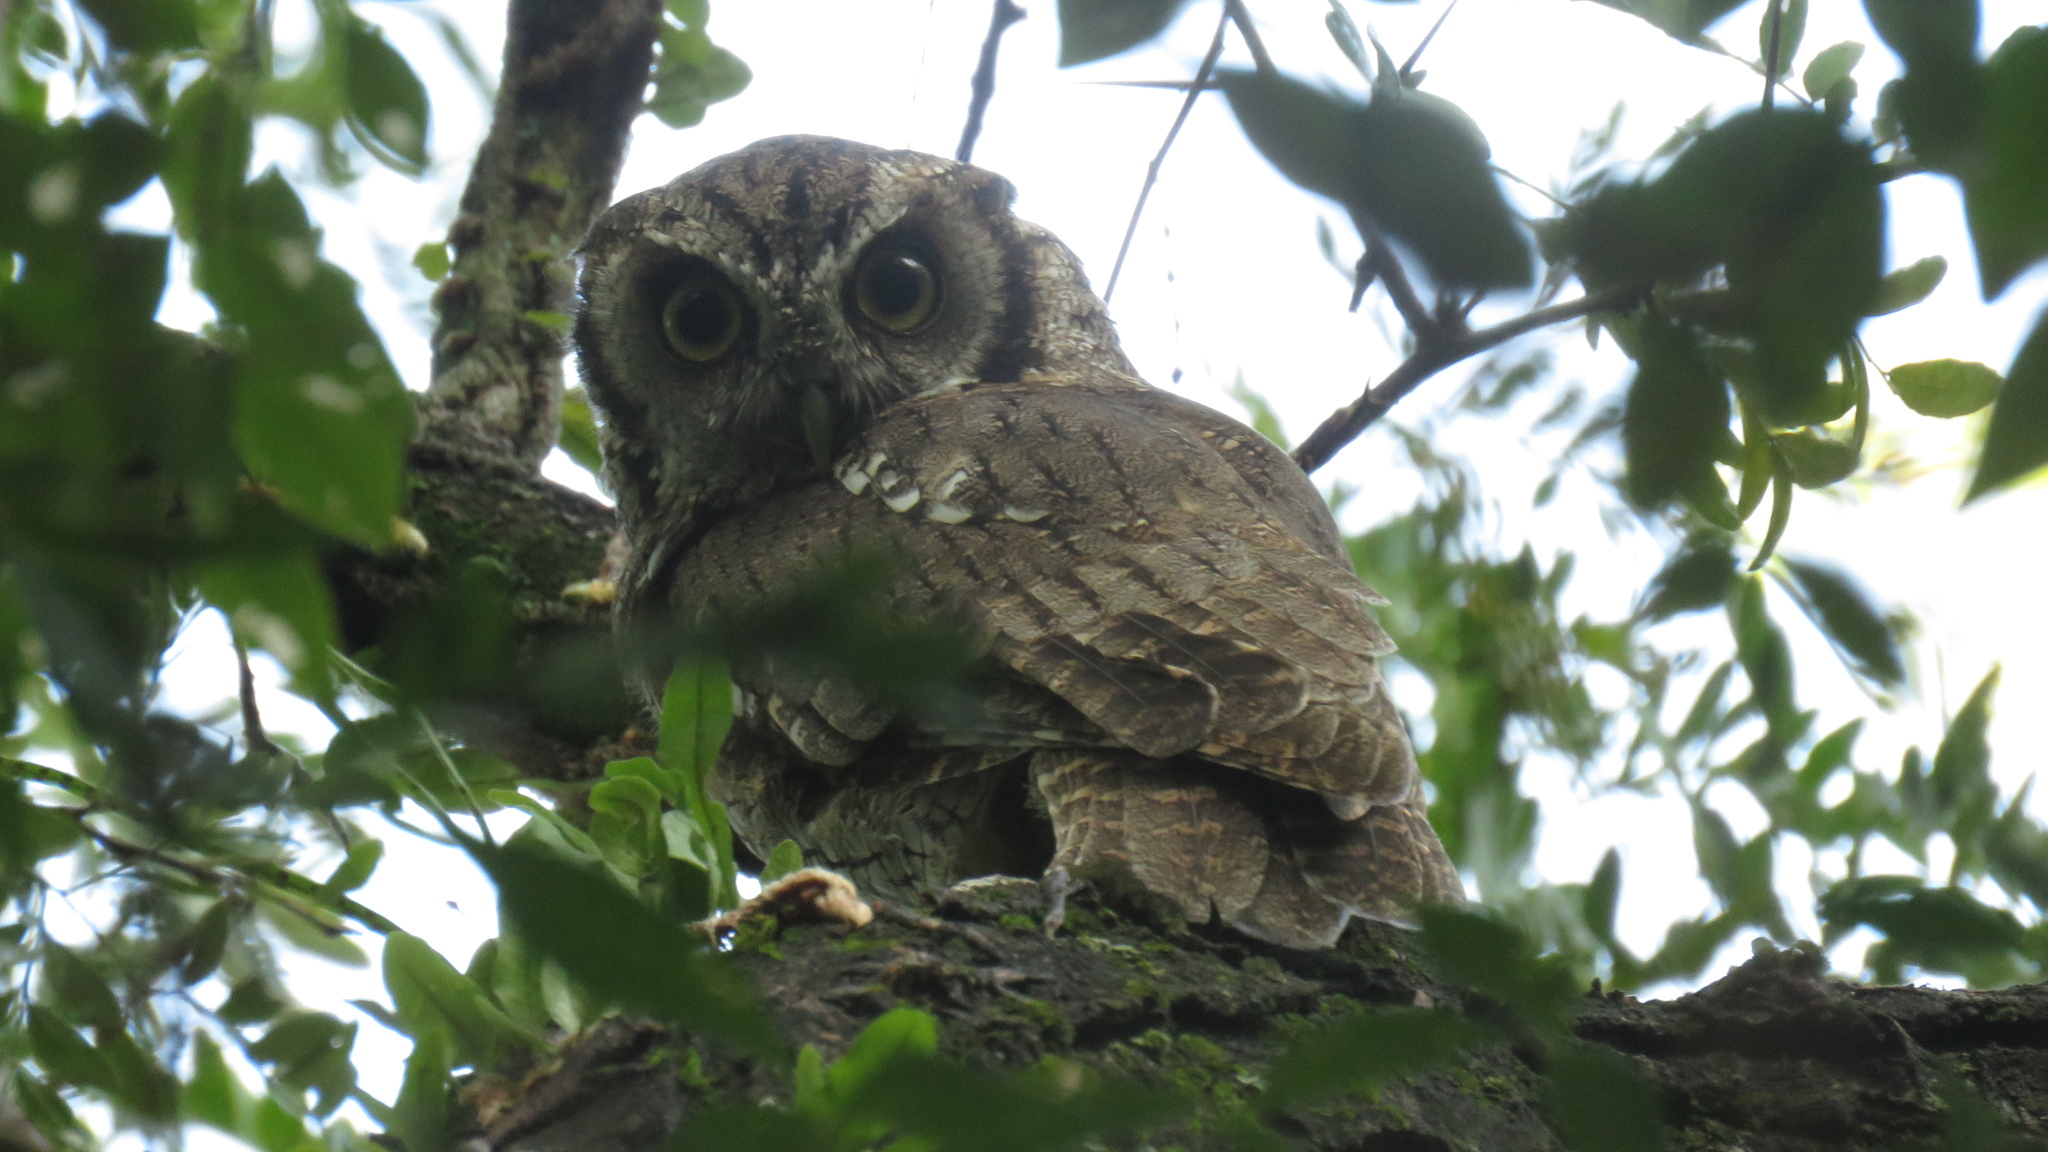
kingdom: Animalia
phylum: Chordata
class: Aves
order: Strigiformes
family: Strigidae
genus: Megascops
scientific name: Megascops choliba
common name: Tropical screech-owl
